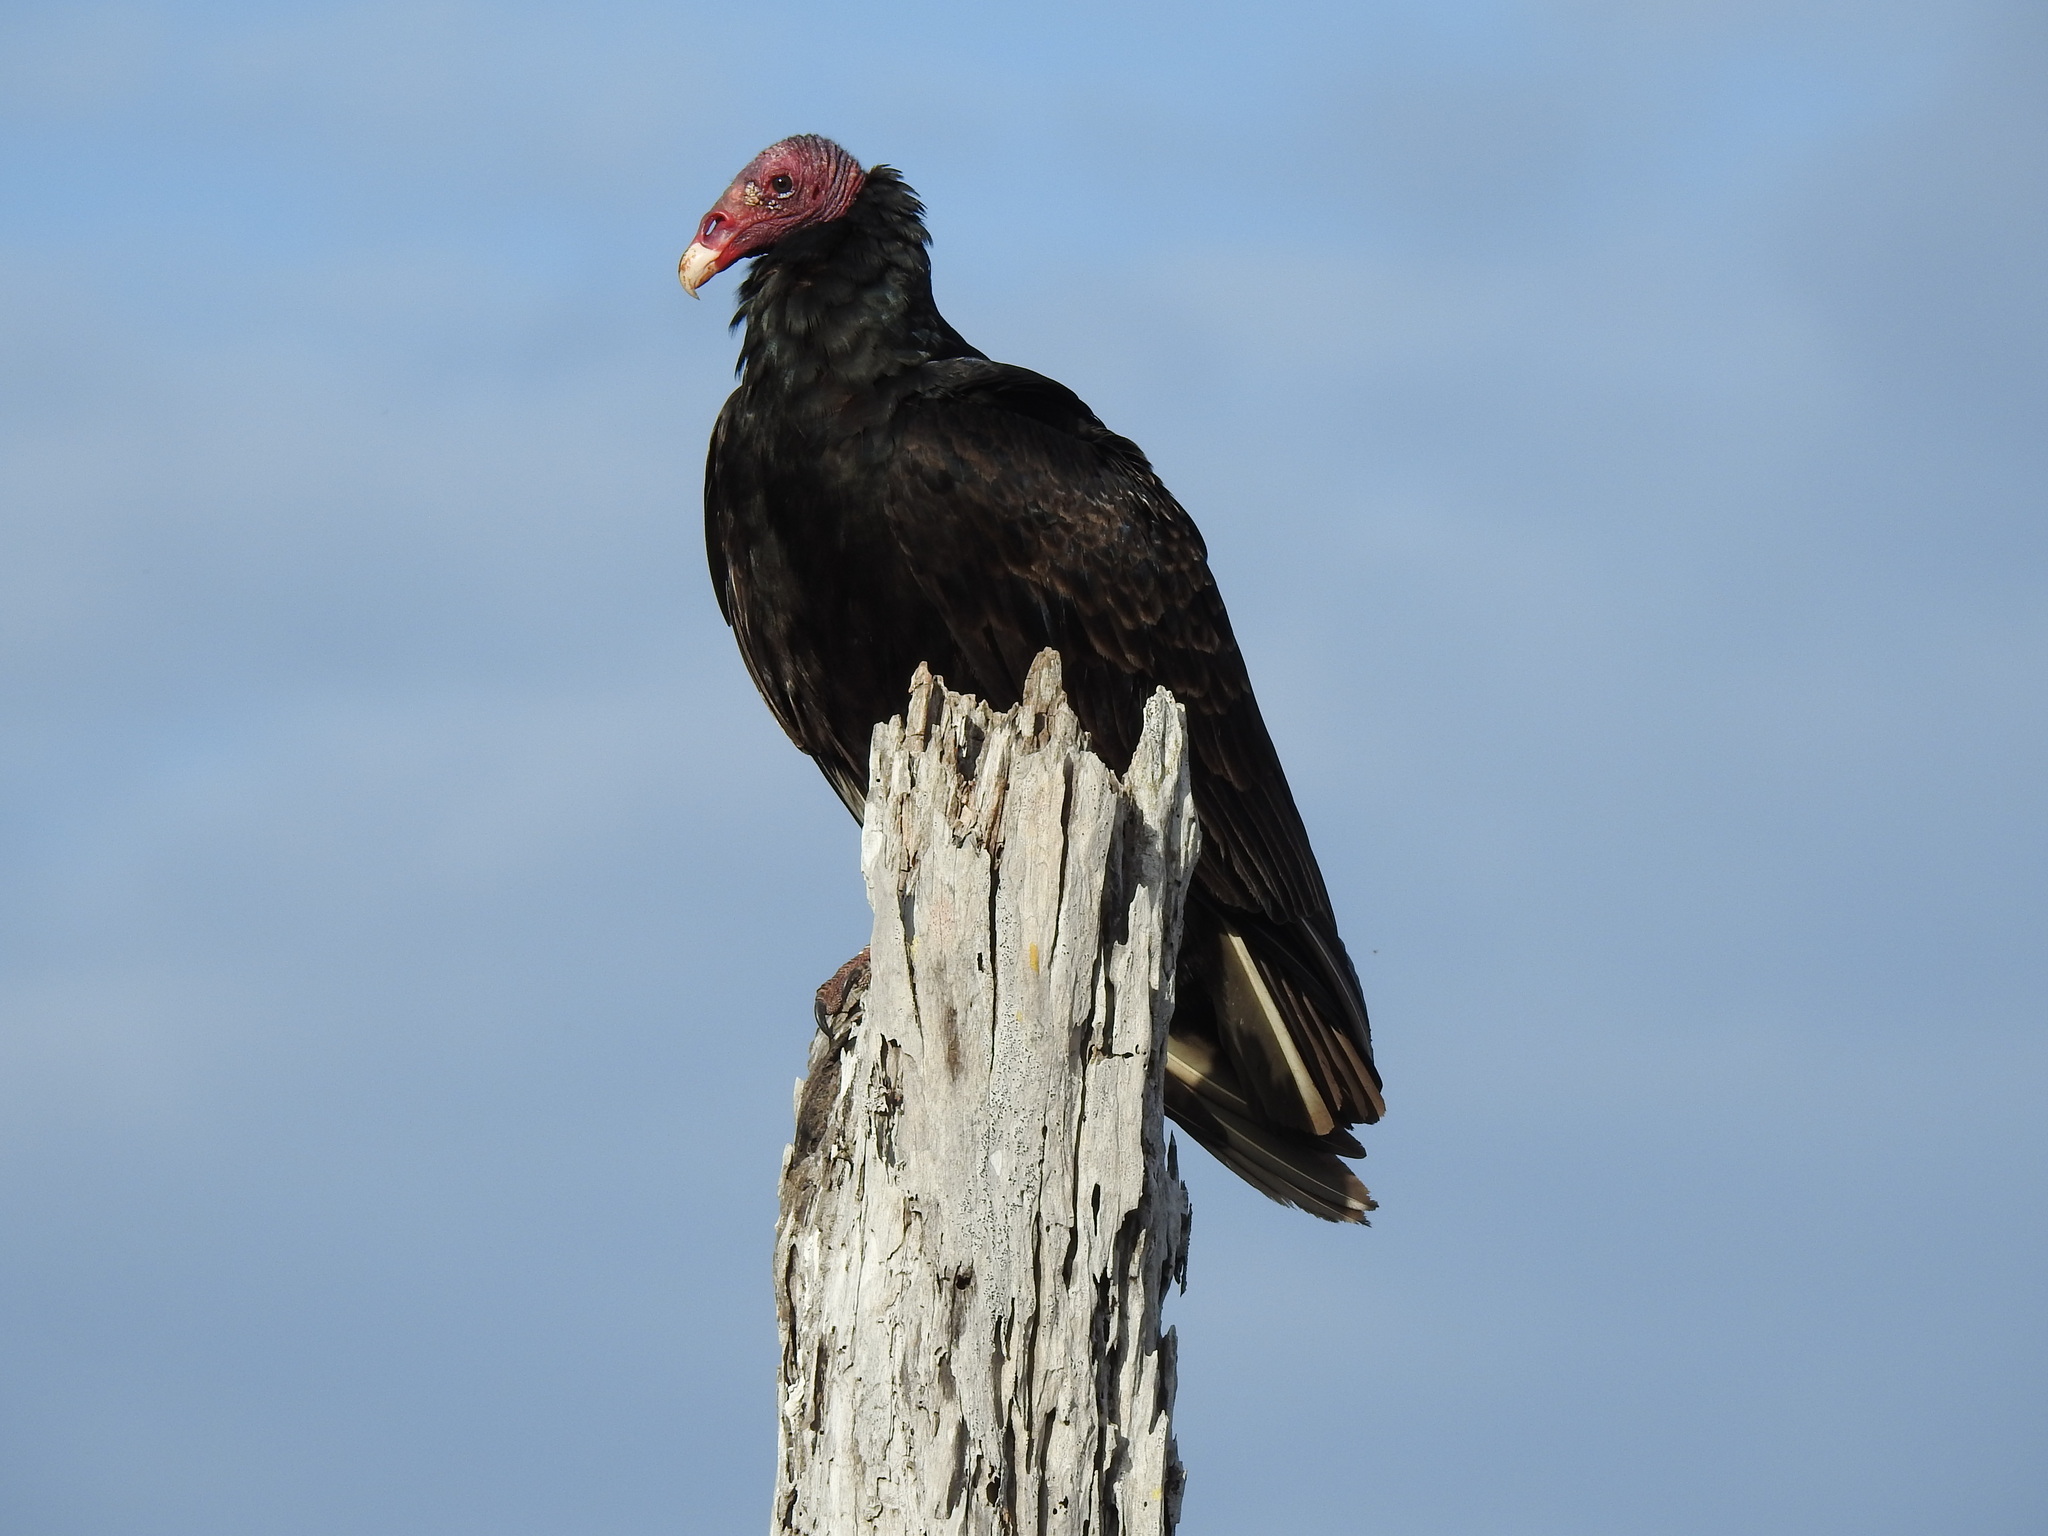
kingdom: Animalia
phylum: Chordata
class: Aves
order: Accipitriformes
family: Cathartidae
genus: Cathartes
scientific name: Cathartes aura
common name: Turkey vulture
